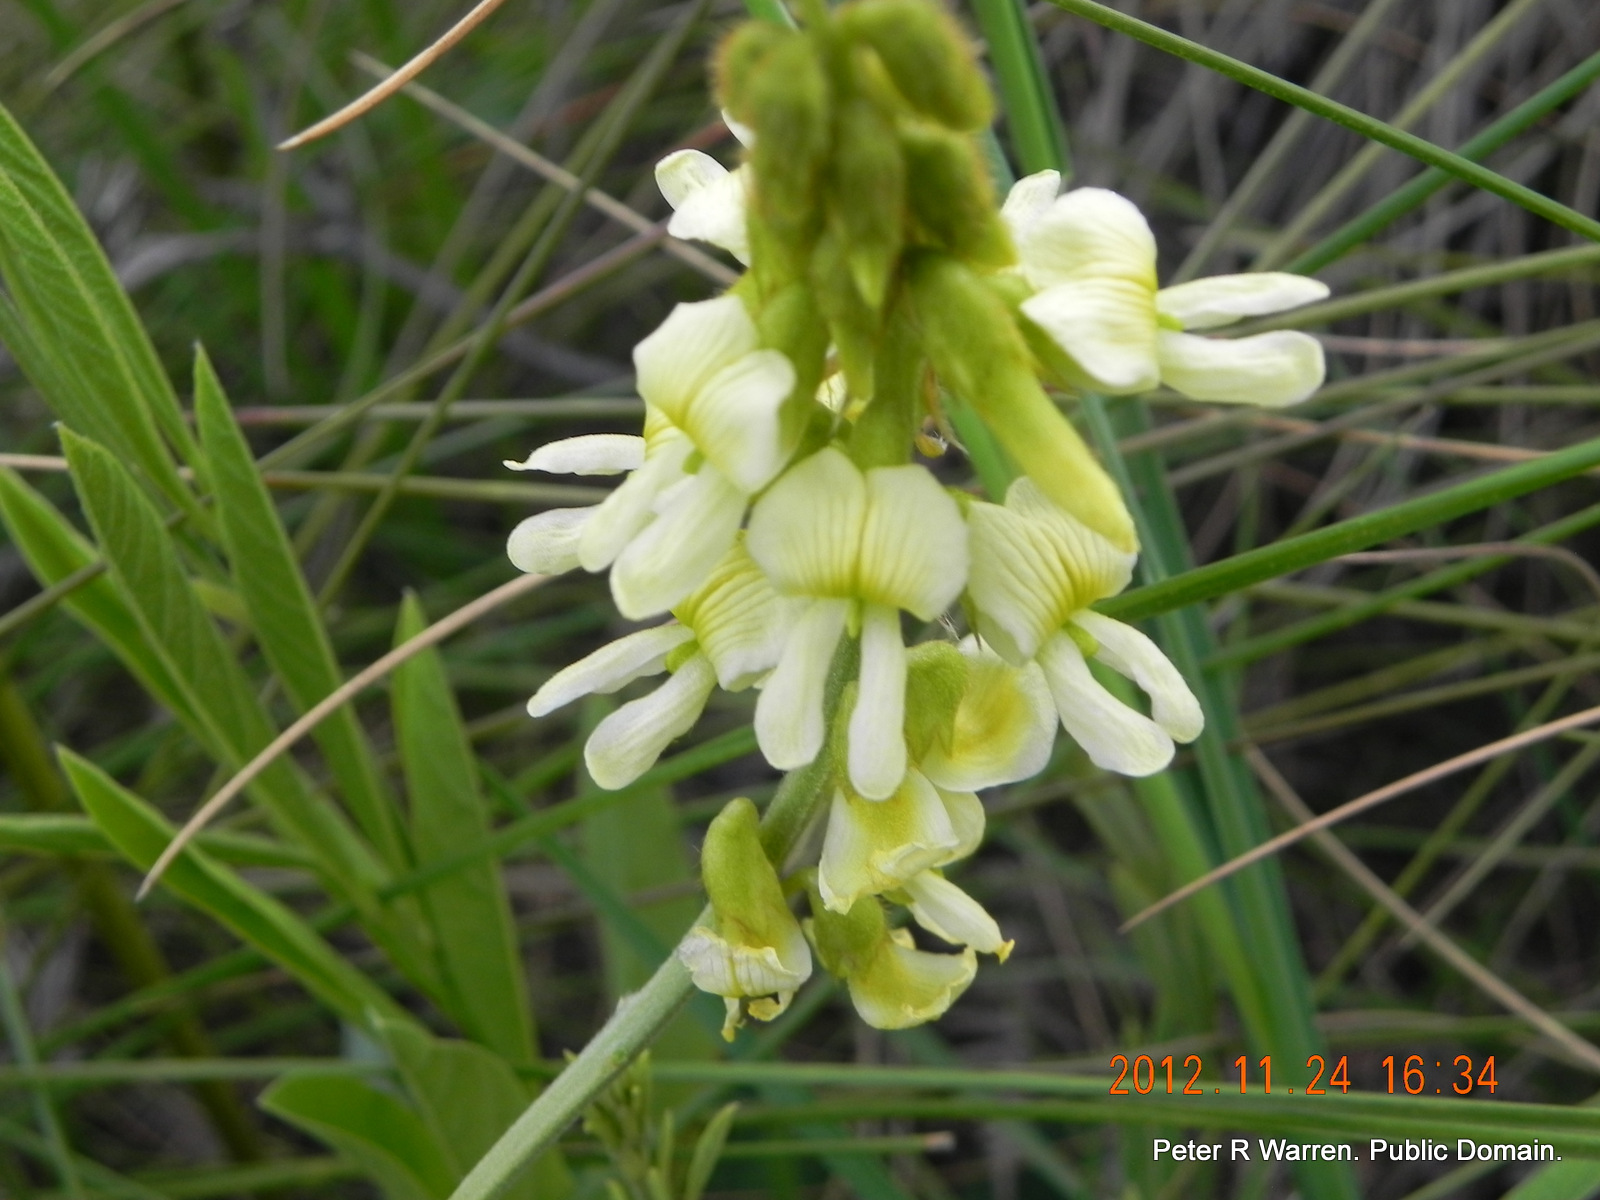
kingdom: Plantae
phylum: Tracheophyta
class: Magnoliopsida
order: Fabales
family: Fabaceae
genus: Eriosema
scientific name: Eriosema kraussianum
